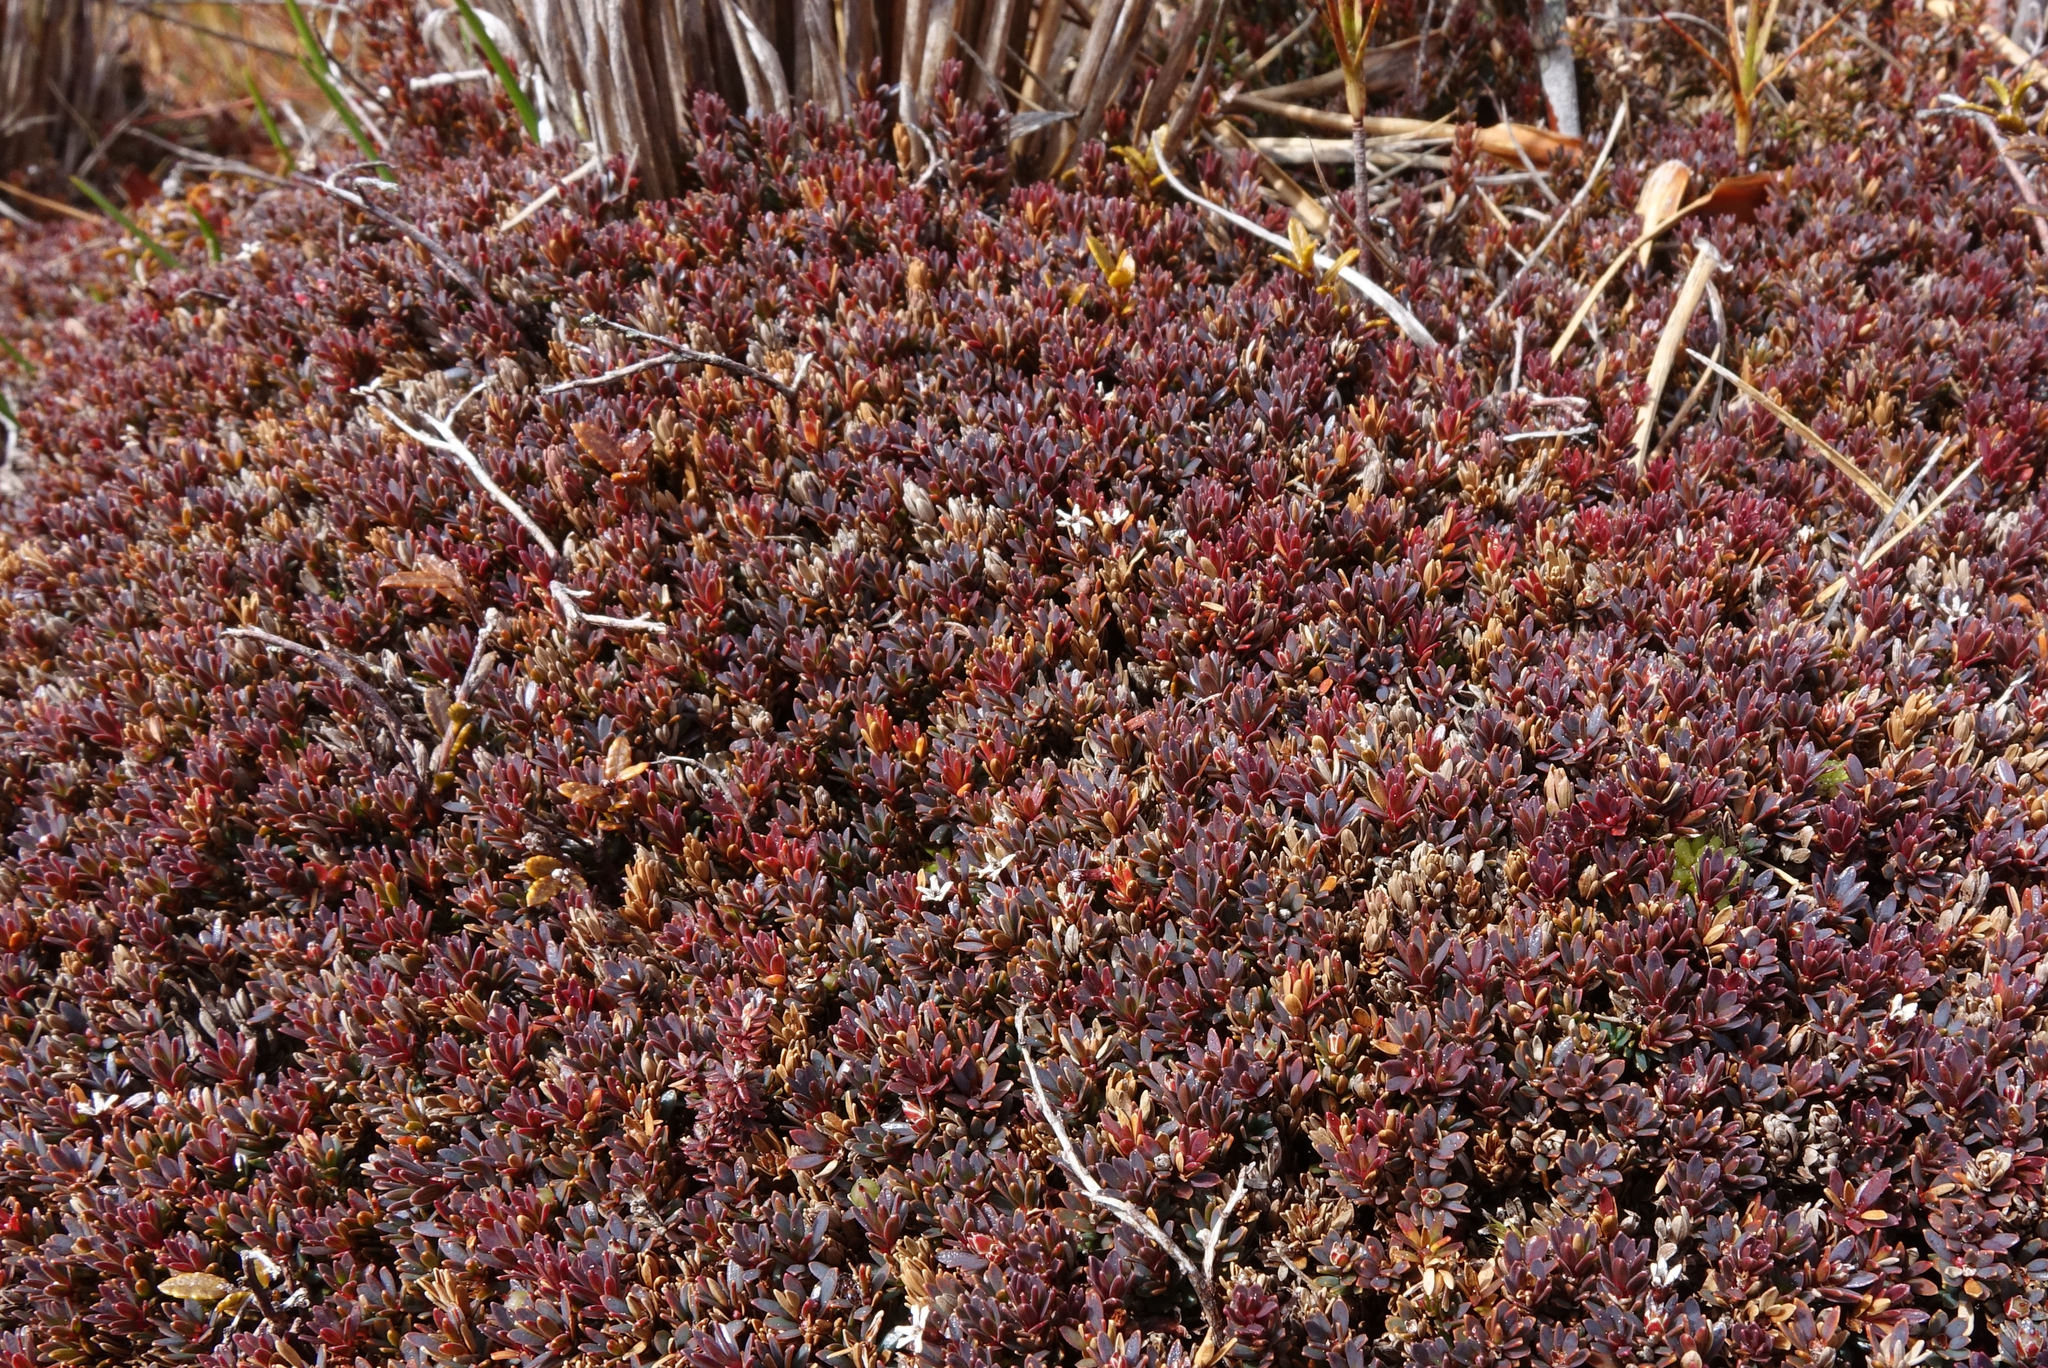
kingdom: Plantae
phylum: Tracheophyta
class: Magnoliopsida
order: Ericales
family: Ericaceae
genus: Pentachondra
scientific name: Pentachondra pumila
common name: Carpet-heath
